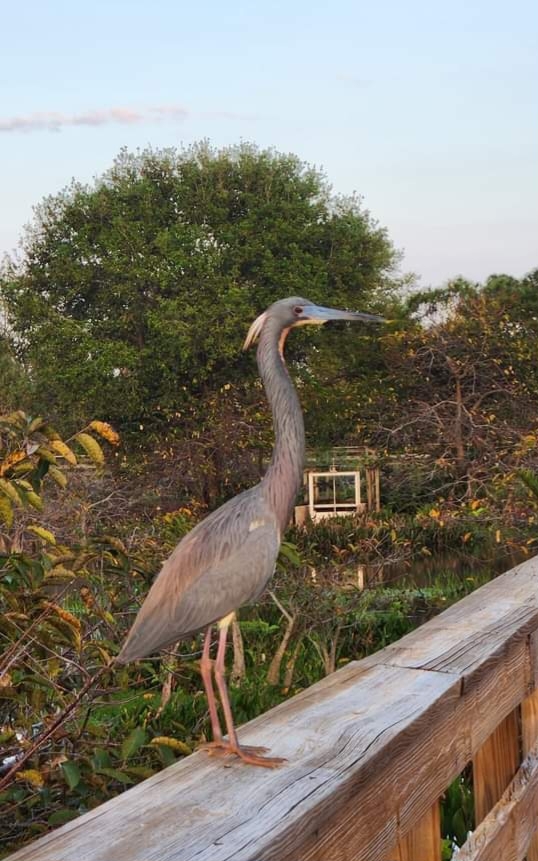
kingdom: Animalia
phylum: Chordata
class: Aves
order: Pelecaniformes
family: Ardeidae
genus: Egretta
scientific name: Egretta tricolor
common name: Tricolored heron
